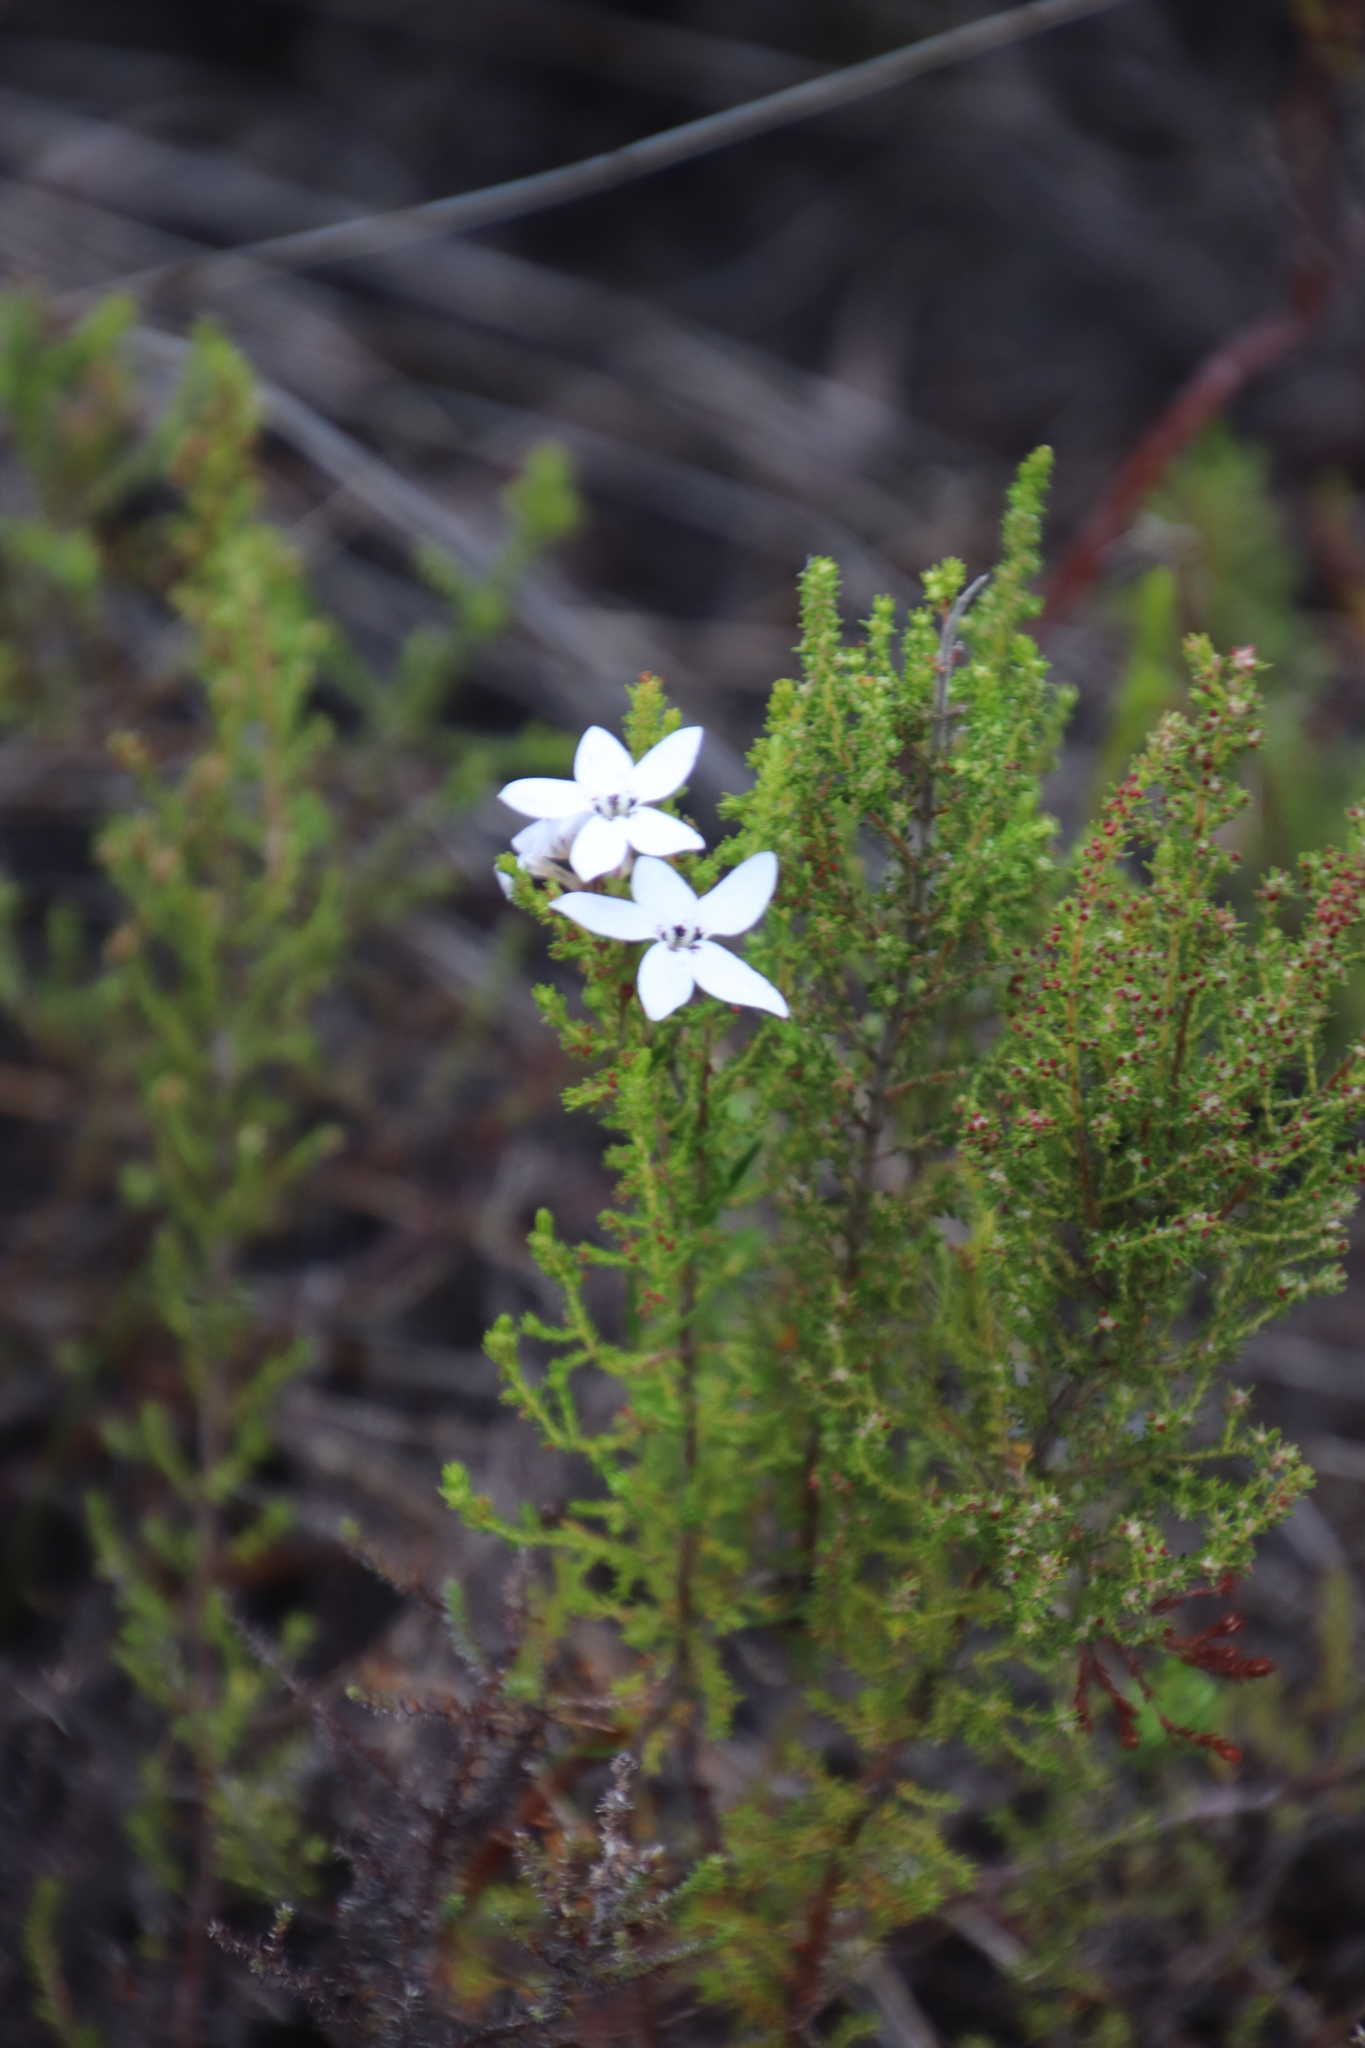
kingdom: Plantae
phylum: Tracheophyta
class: Magnoliopsida
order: Asterales
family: Campanulaceae
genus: Cyphia
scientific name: Cyphia volubilis
